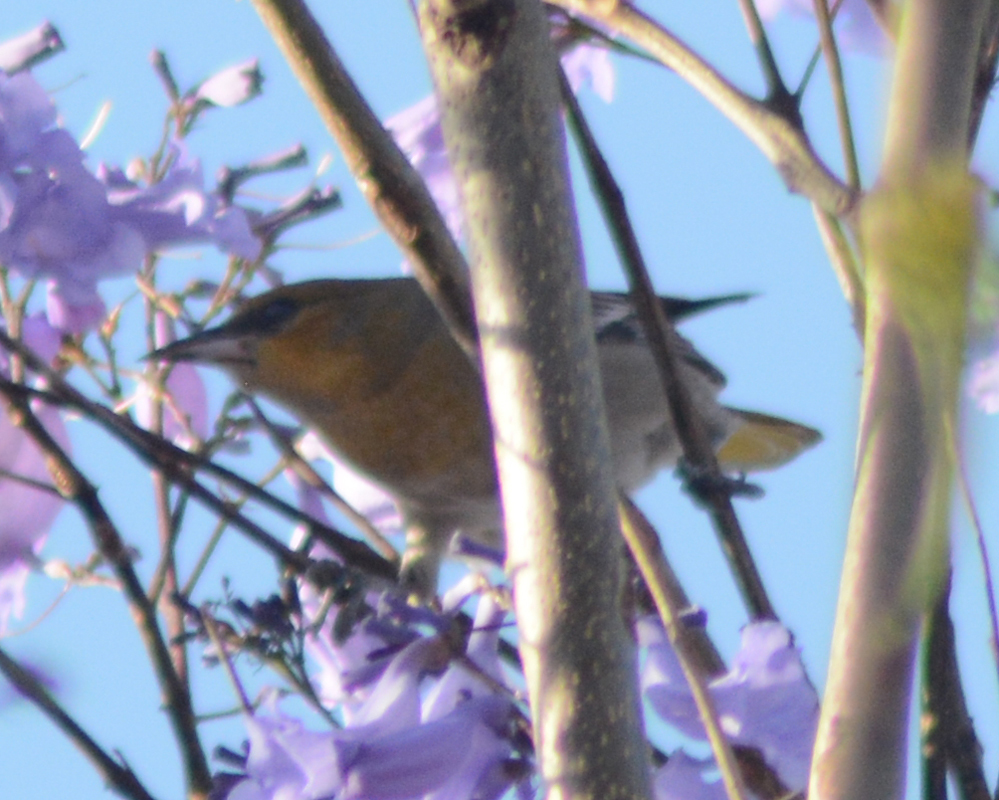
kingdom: Animalia
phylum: Chordata
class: Aves
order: Passeriformes
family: Icteridae
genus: Icterus
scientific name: Icterus abeillei
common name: Black-backed oriole
